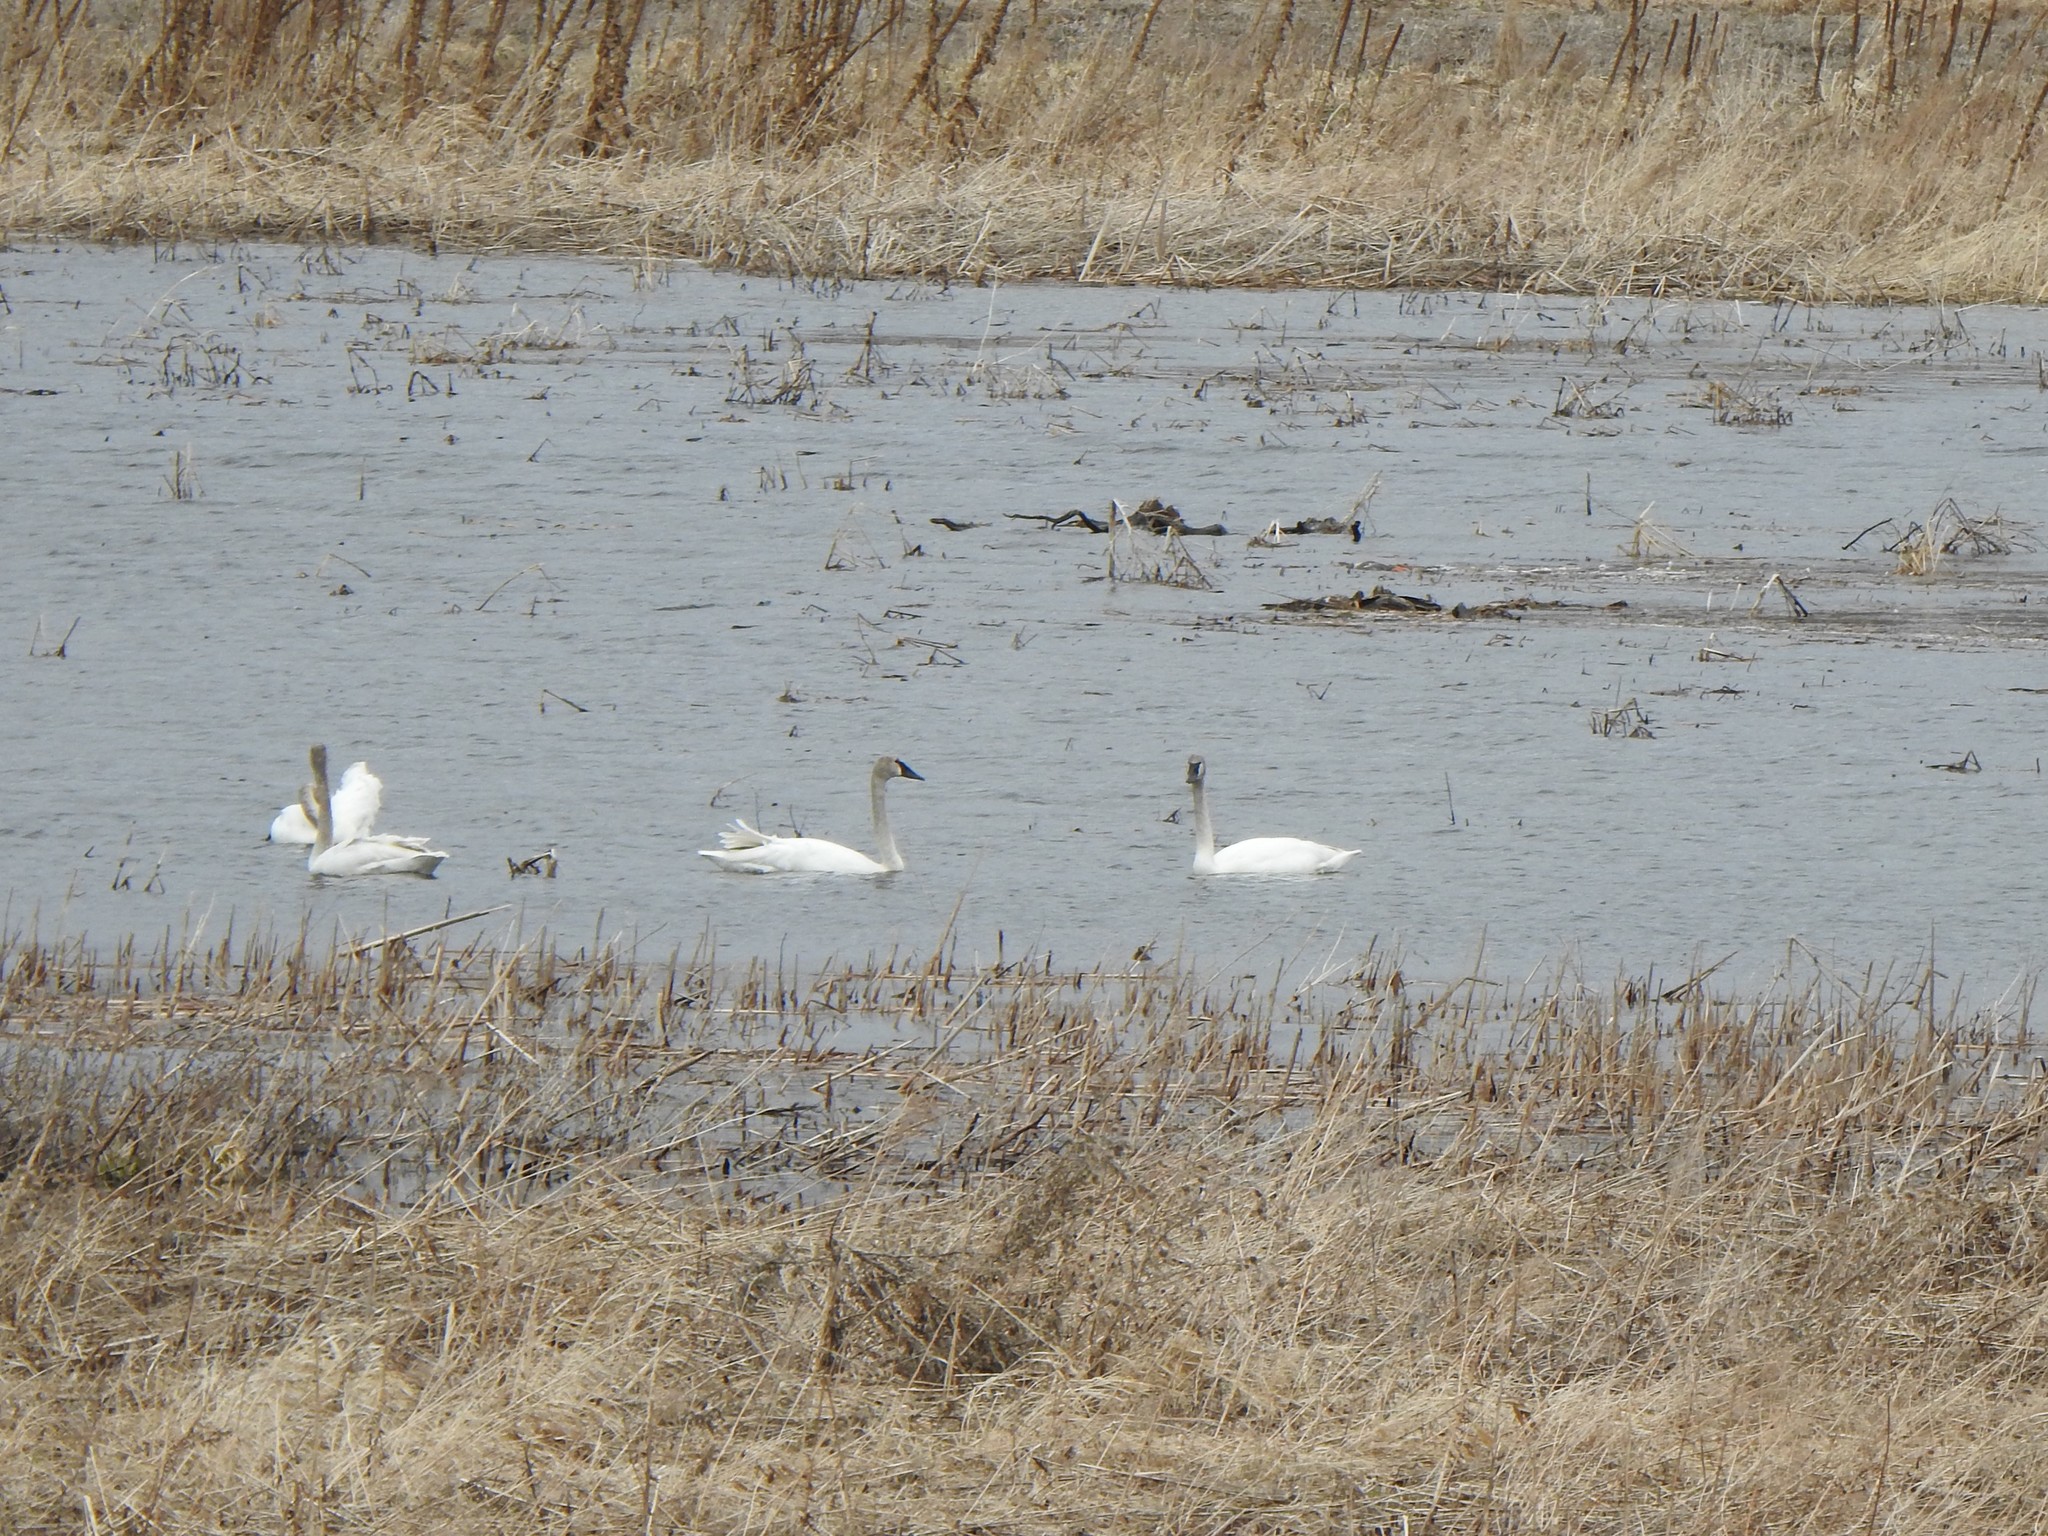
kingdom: Animalia
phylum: Chordata
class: Aves
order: Anseriformes
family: Anatidae
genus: Cygnus
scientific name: Cygnus buccinator
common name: Trumpeter swan
